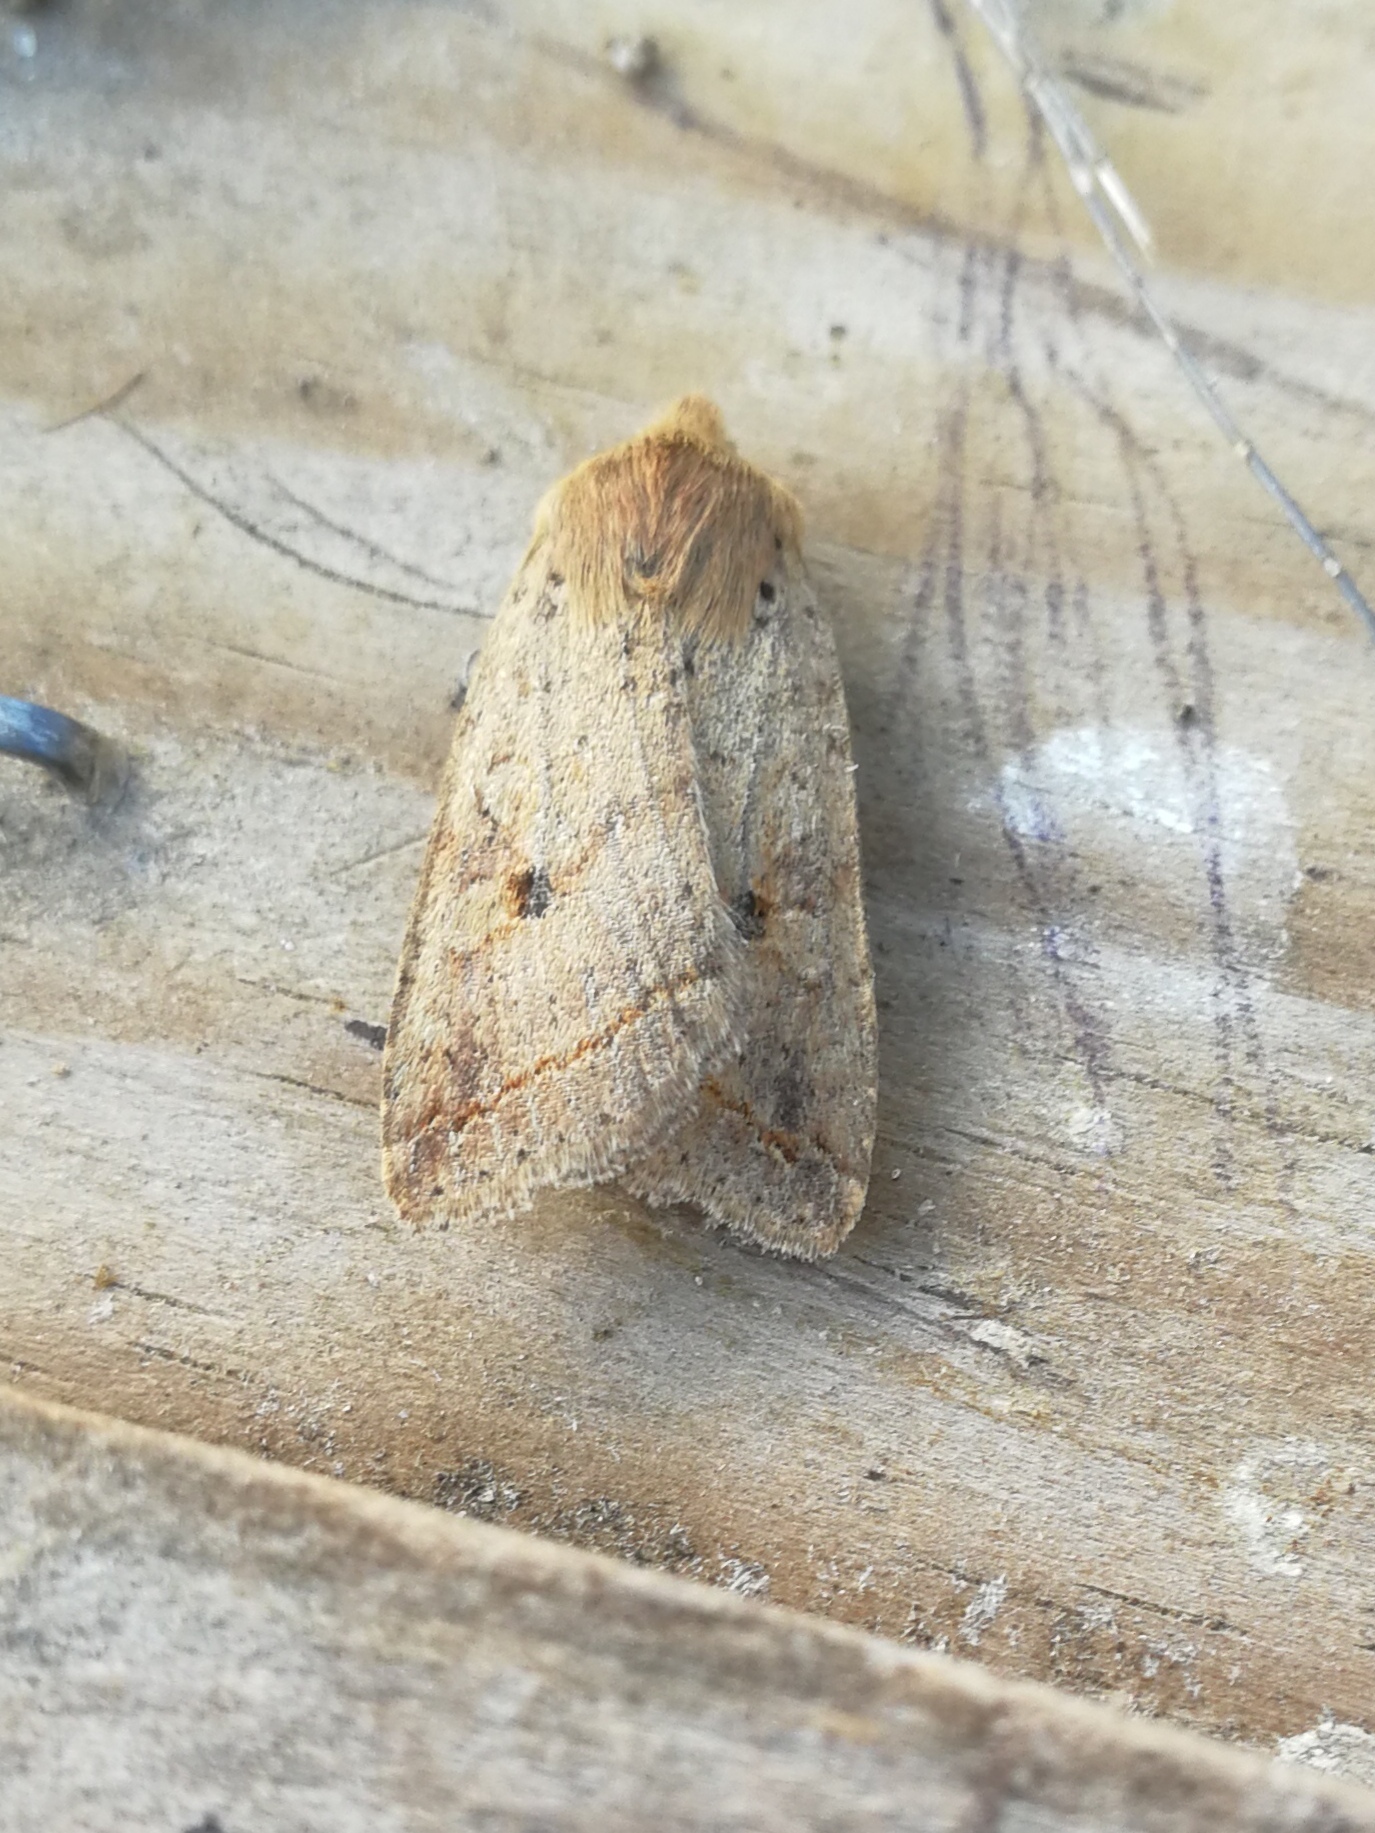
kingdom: Animalia
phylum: Arthropoda
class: Insecta
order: Lepidoptera
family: Noctuidae
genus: Agrochola
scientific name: Agrochola macilenta
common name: Yellow-line quaker
